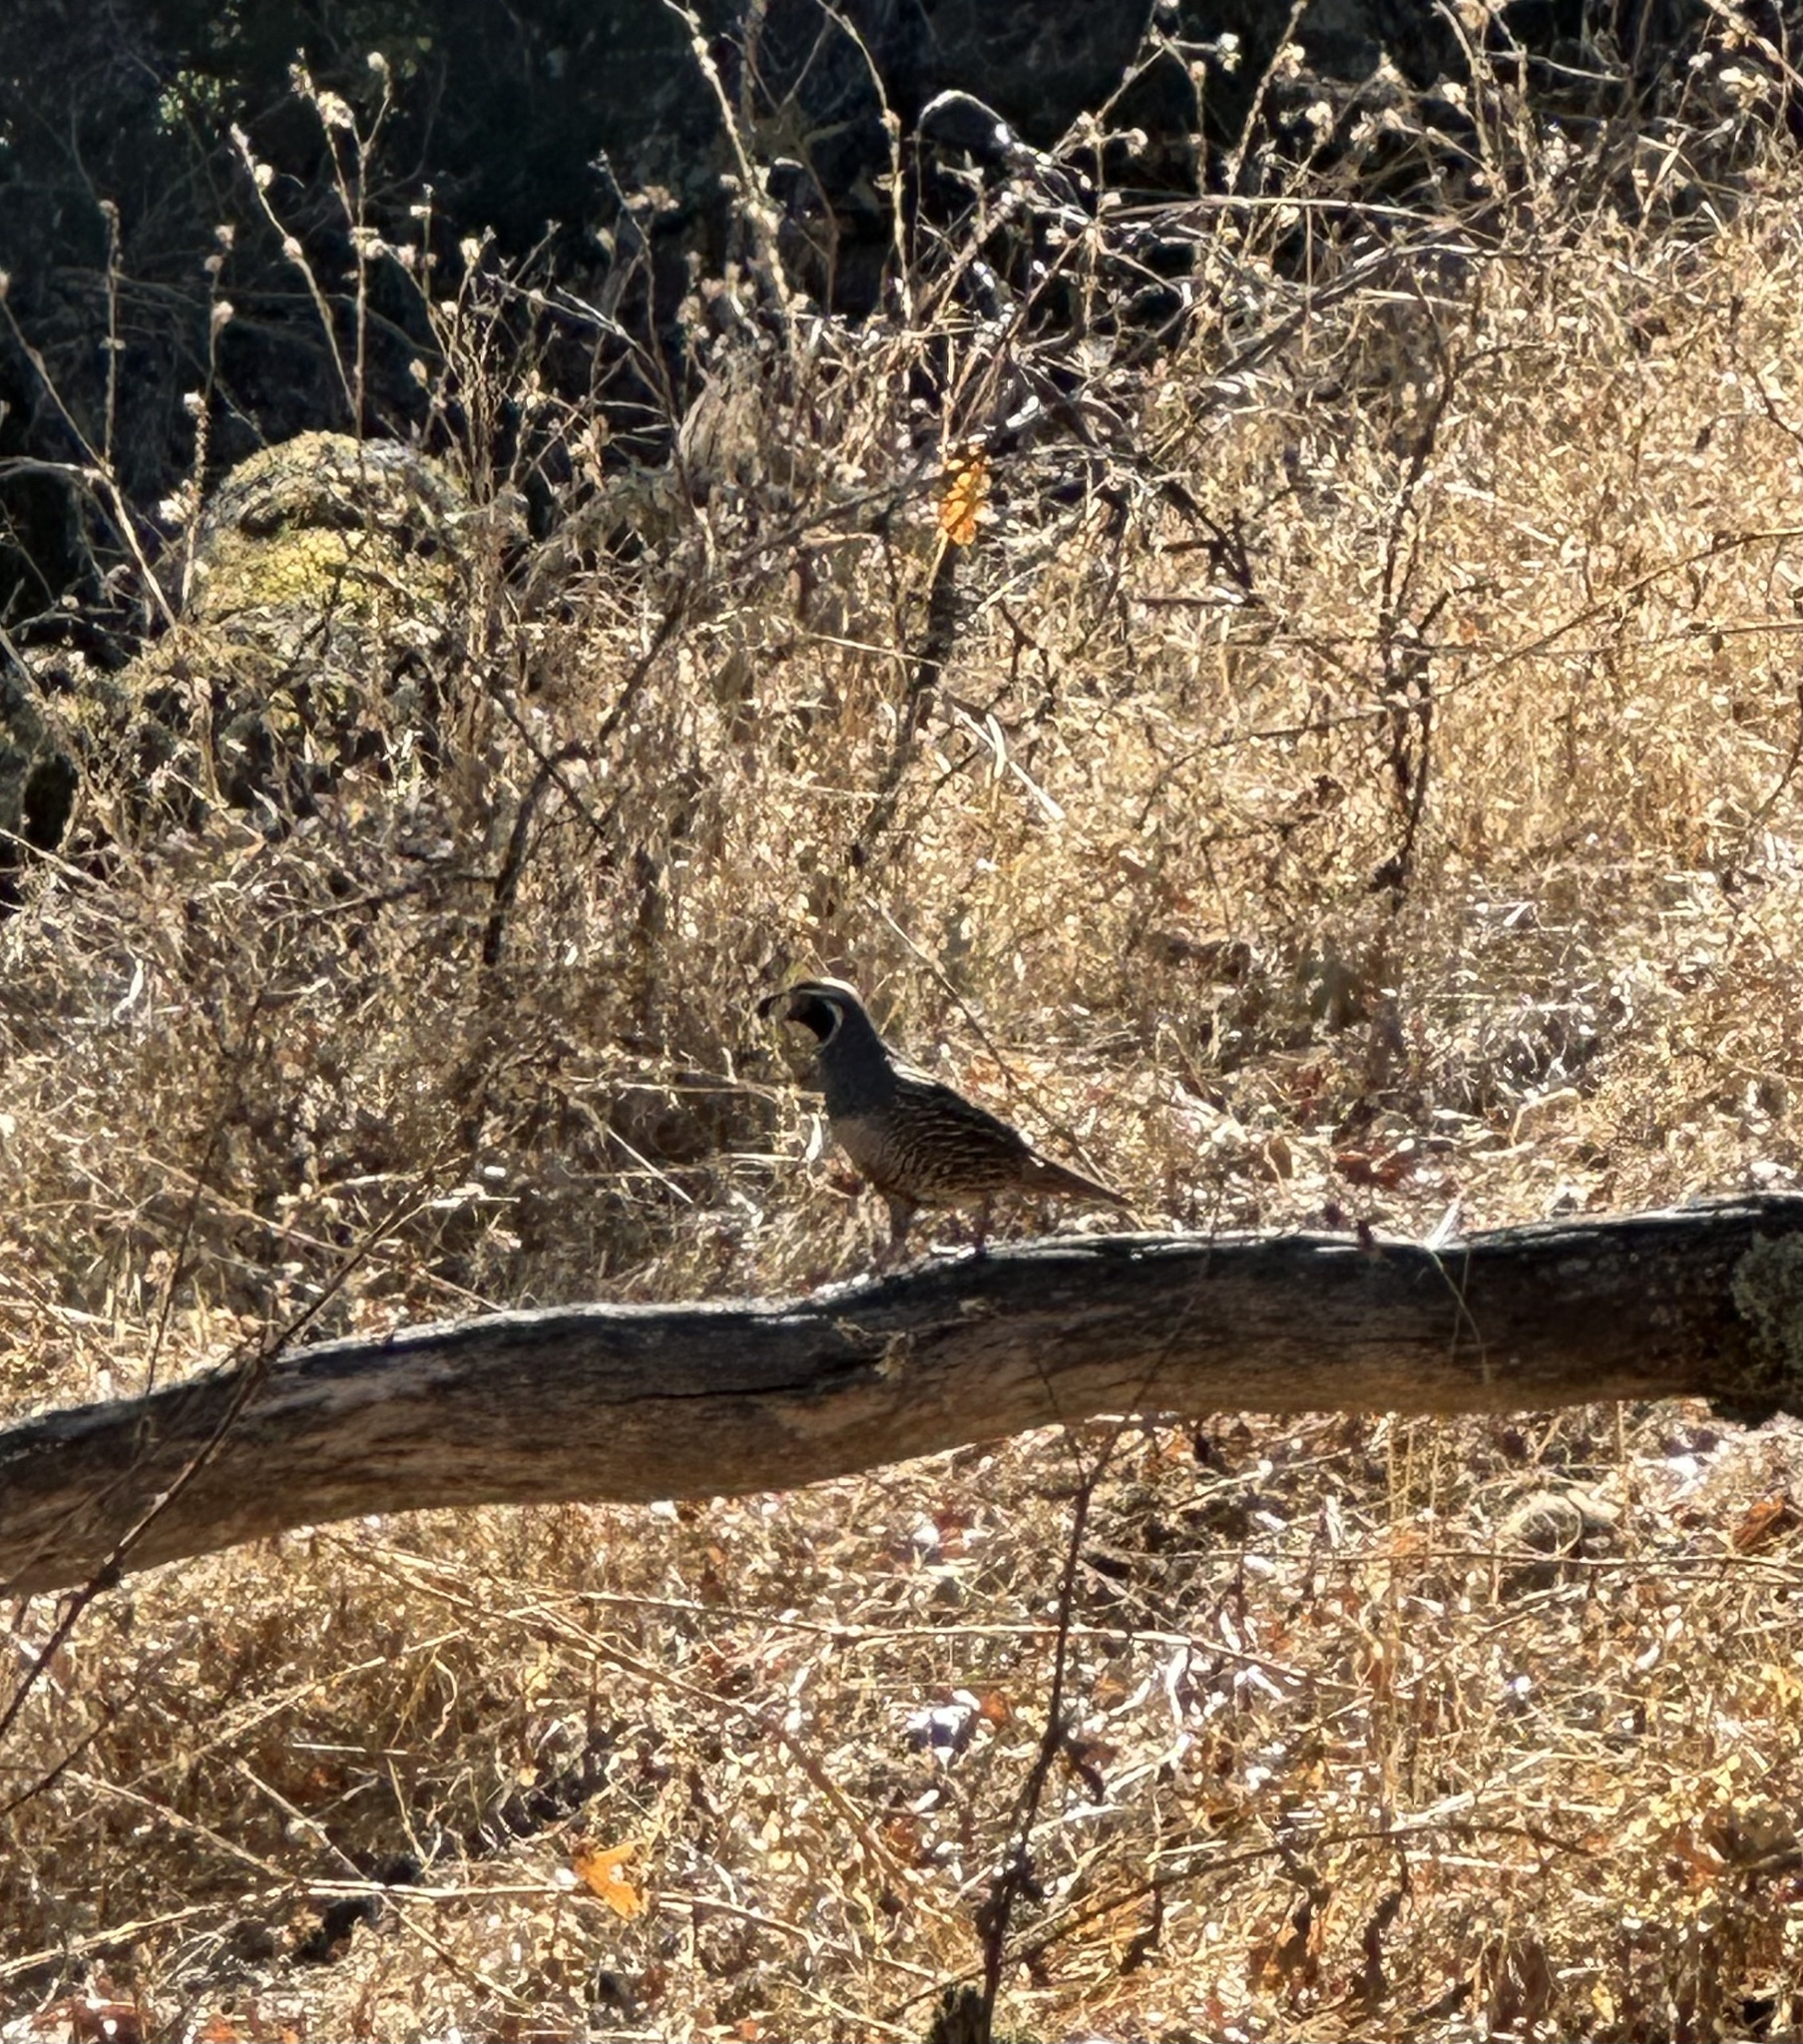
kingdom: Animalia
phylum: Chordata
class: Aves
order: Galliformes
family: Odontophoridae
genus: Callipepla
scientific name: Callipepla californica
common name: California quail
